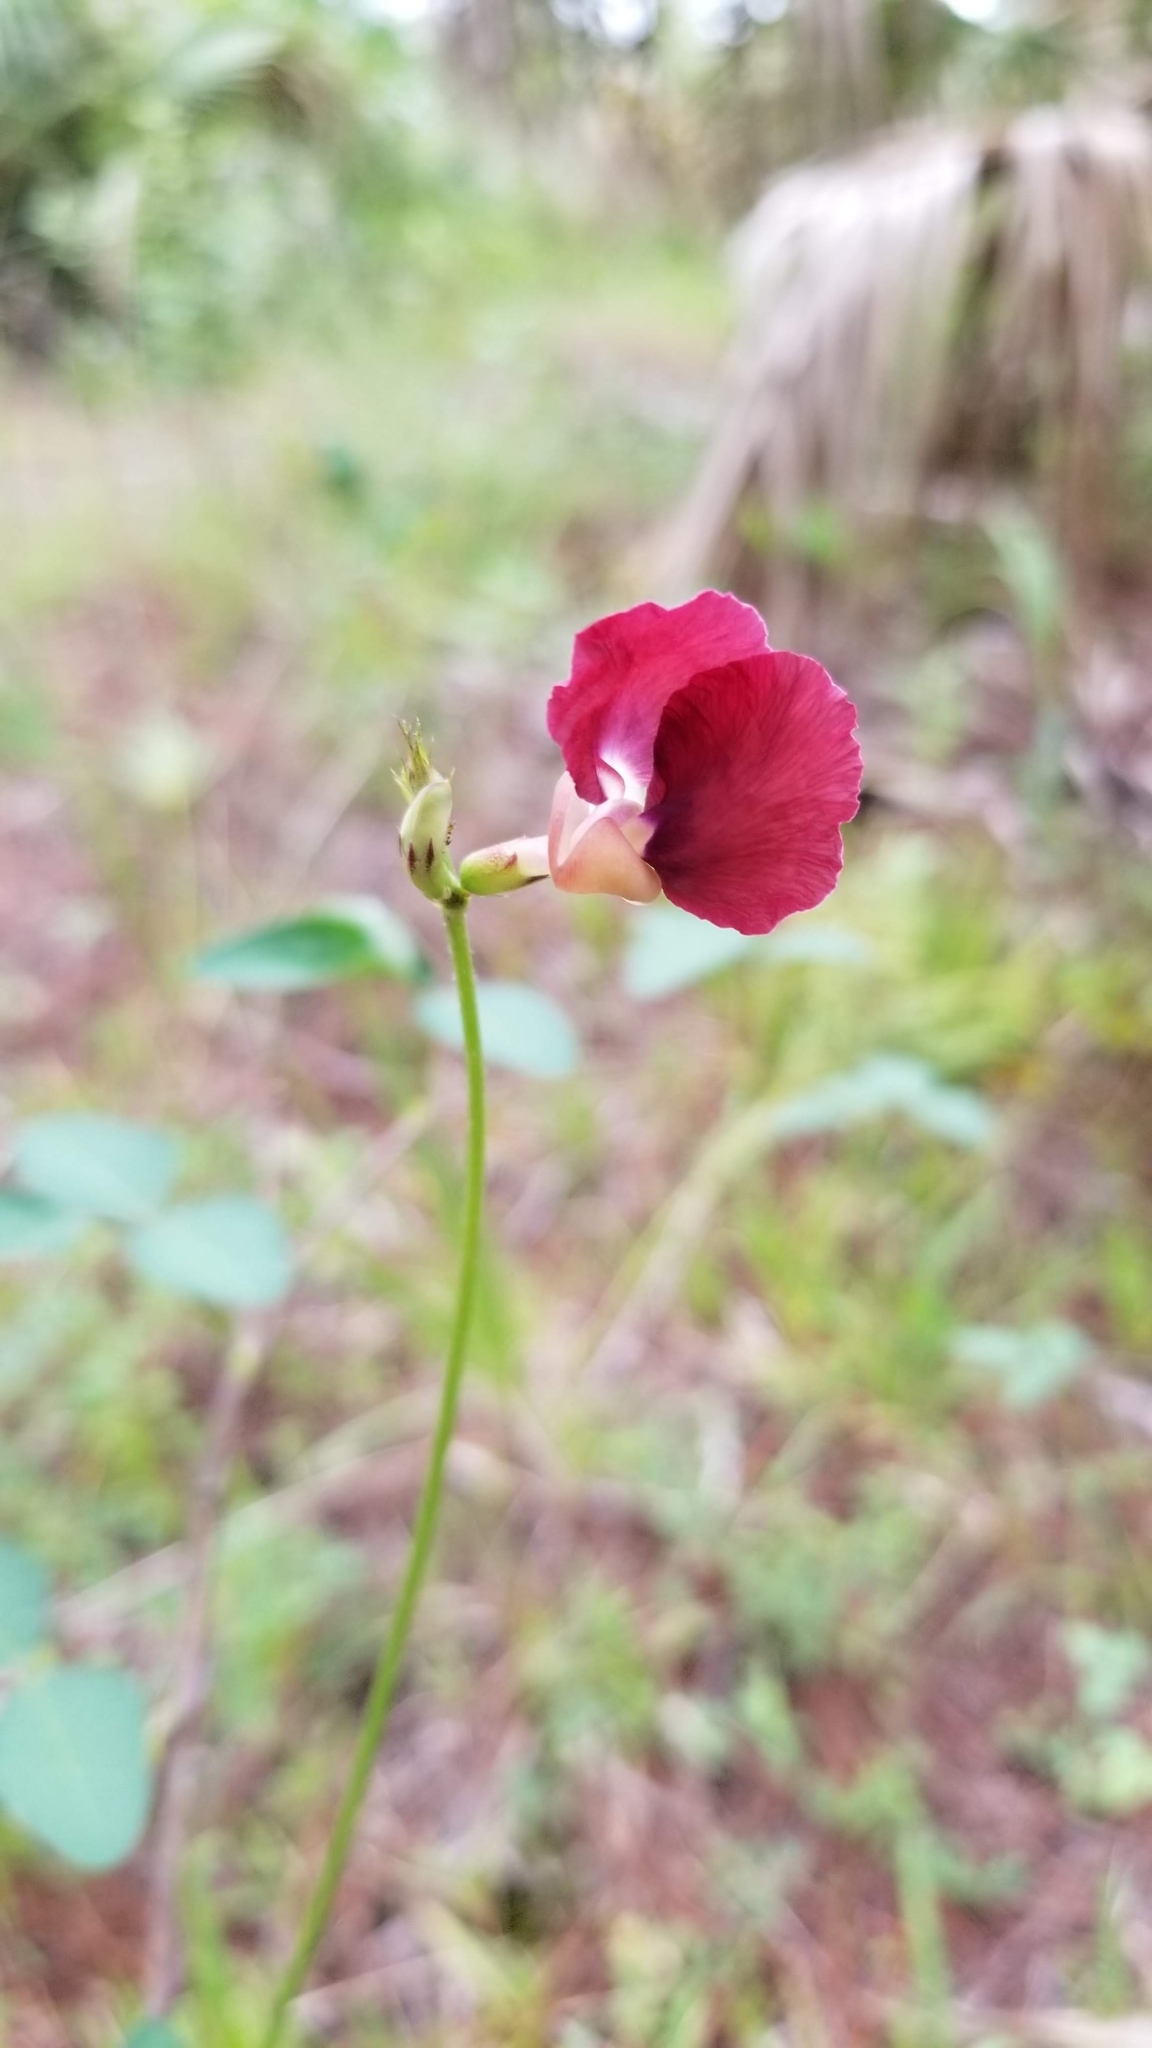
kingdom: Plantae
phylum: Tracheophyta
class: Magnoliopsida
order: Fabales
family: Fabaceae
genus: Macroptilium
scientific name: Macroptilium lathyroides
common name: Wild bushbean
